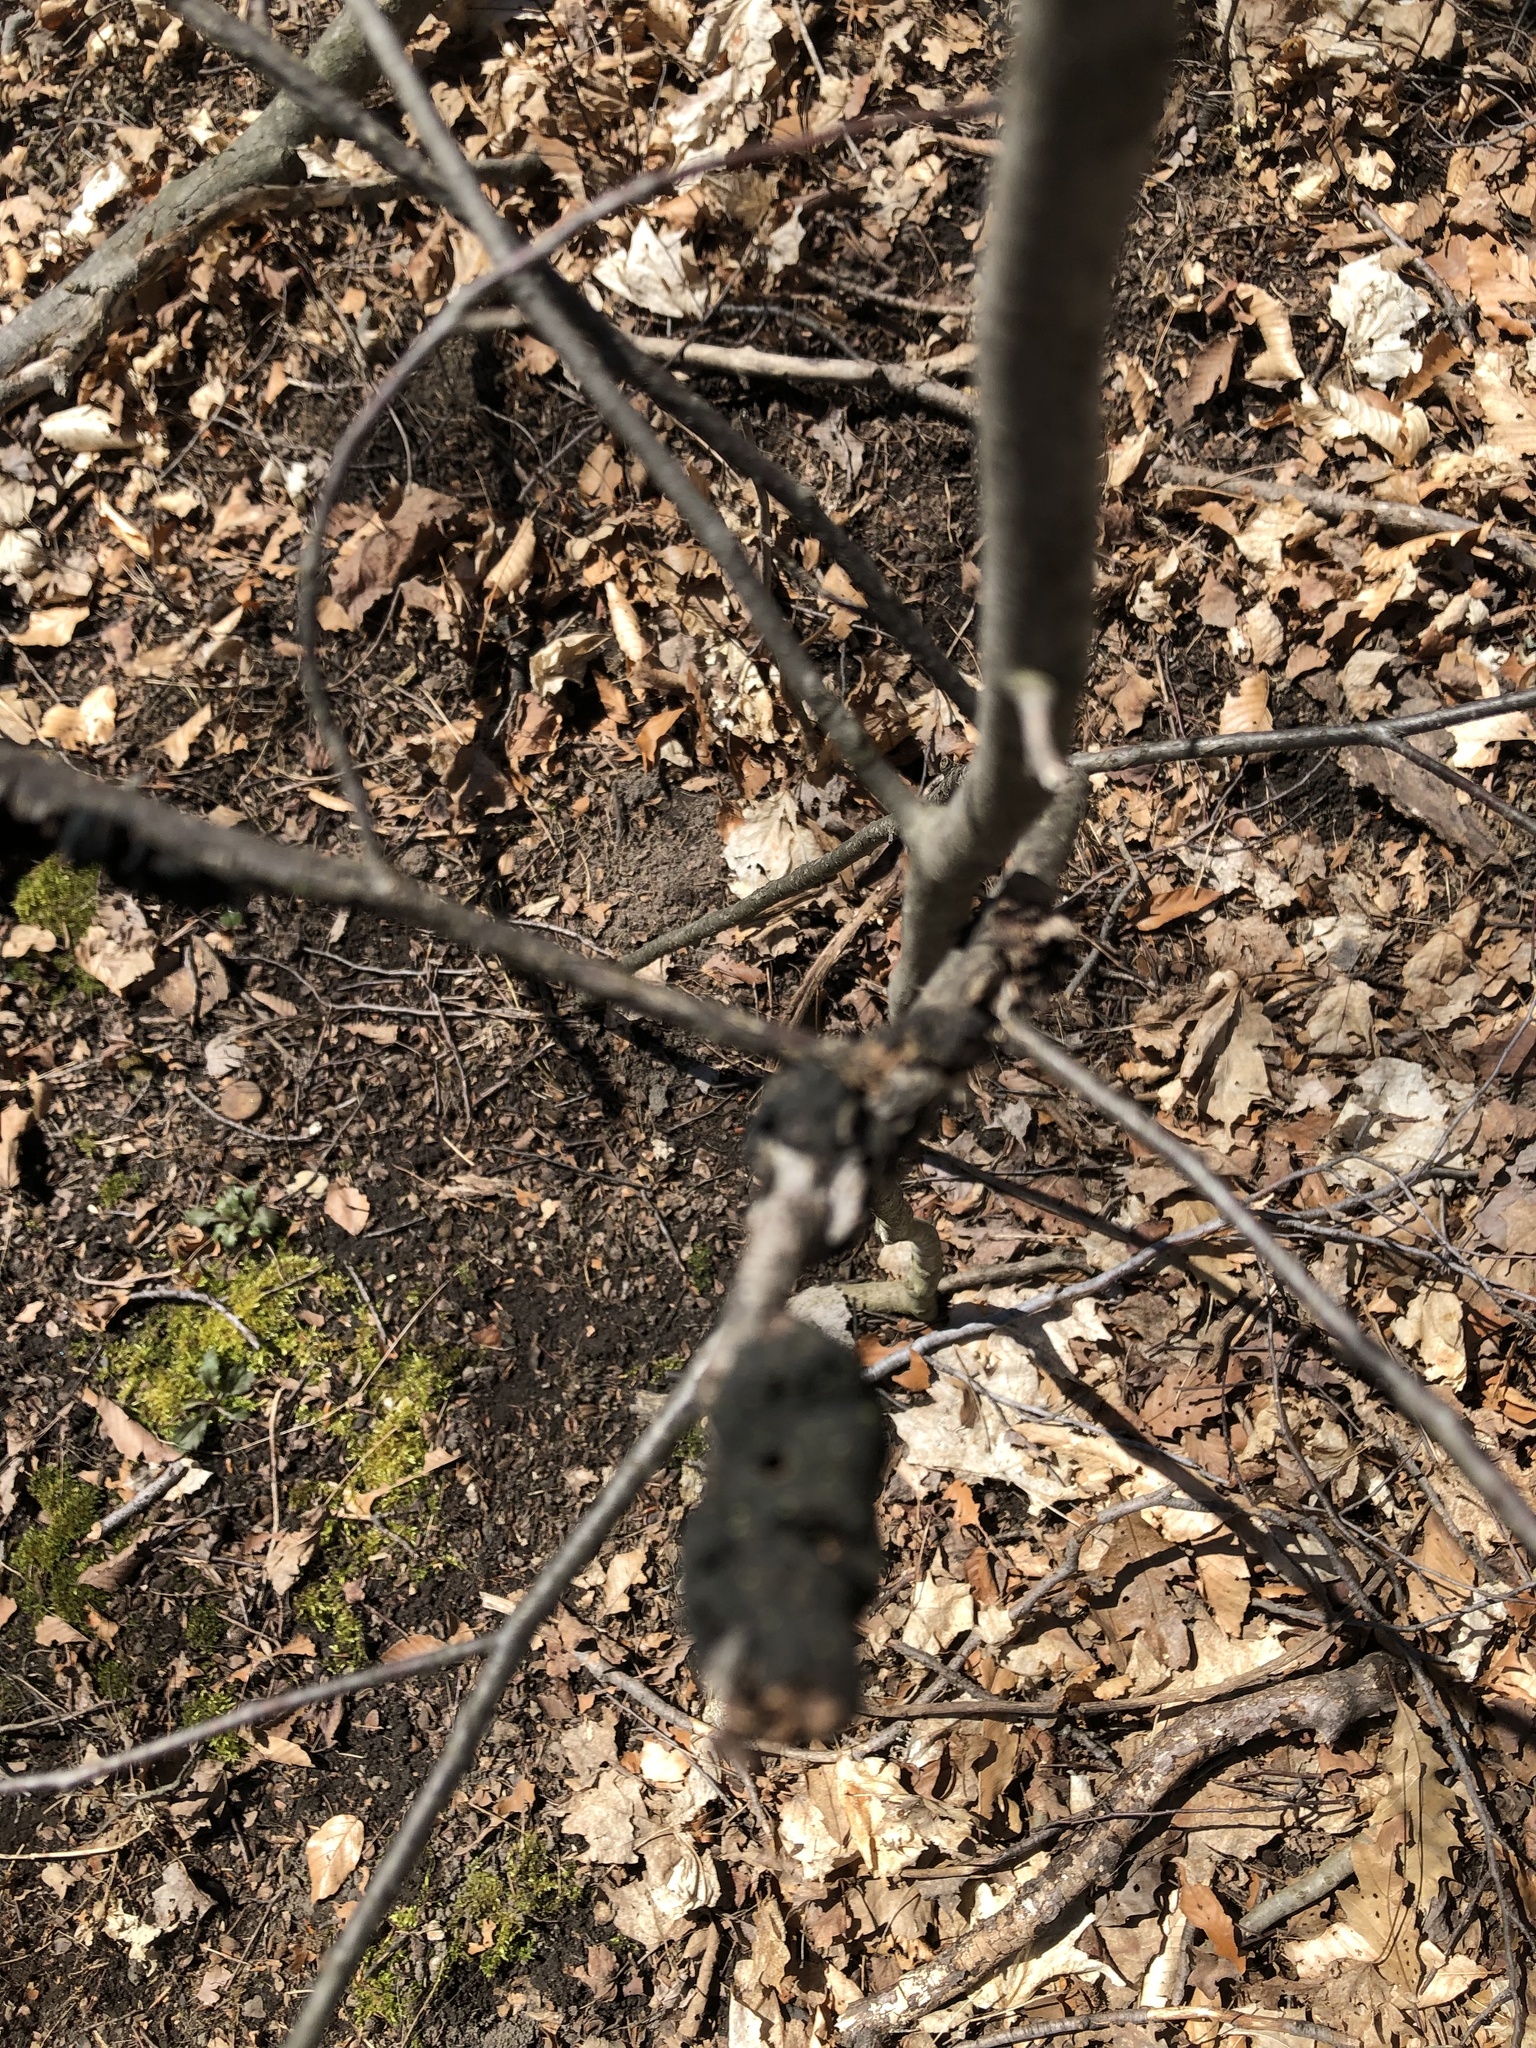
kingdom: Fungi
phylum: Ascomycota
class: Dothideomycetes
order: Venturiales
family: Venturiaceae
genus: Apiosporina
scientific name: Apiosporina morbosa
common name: Black knot
